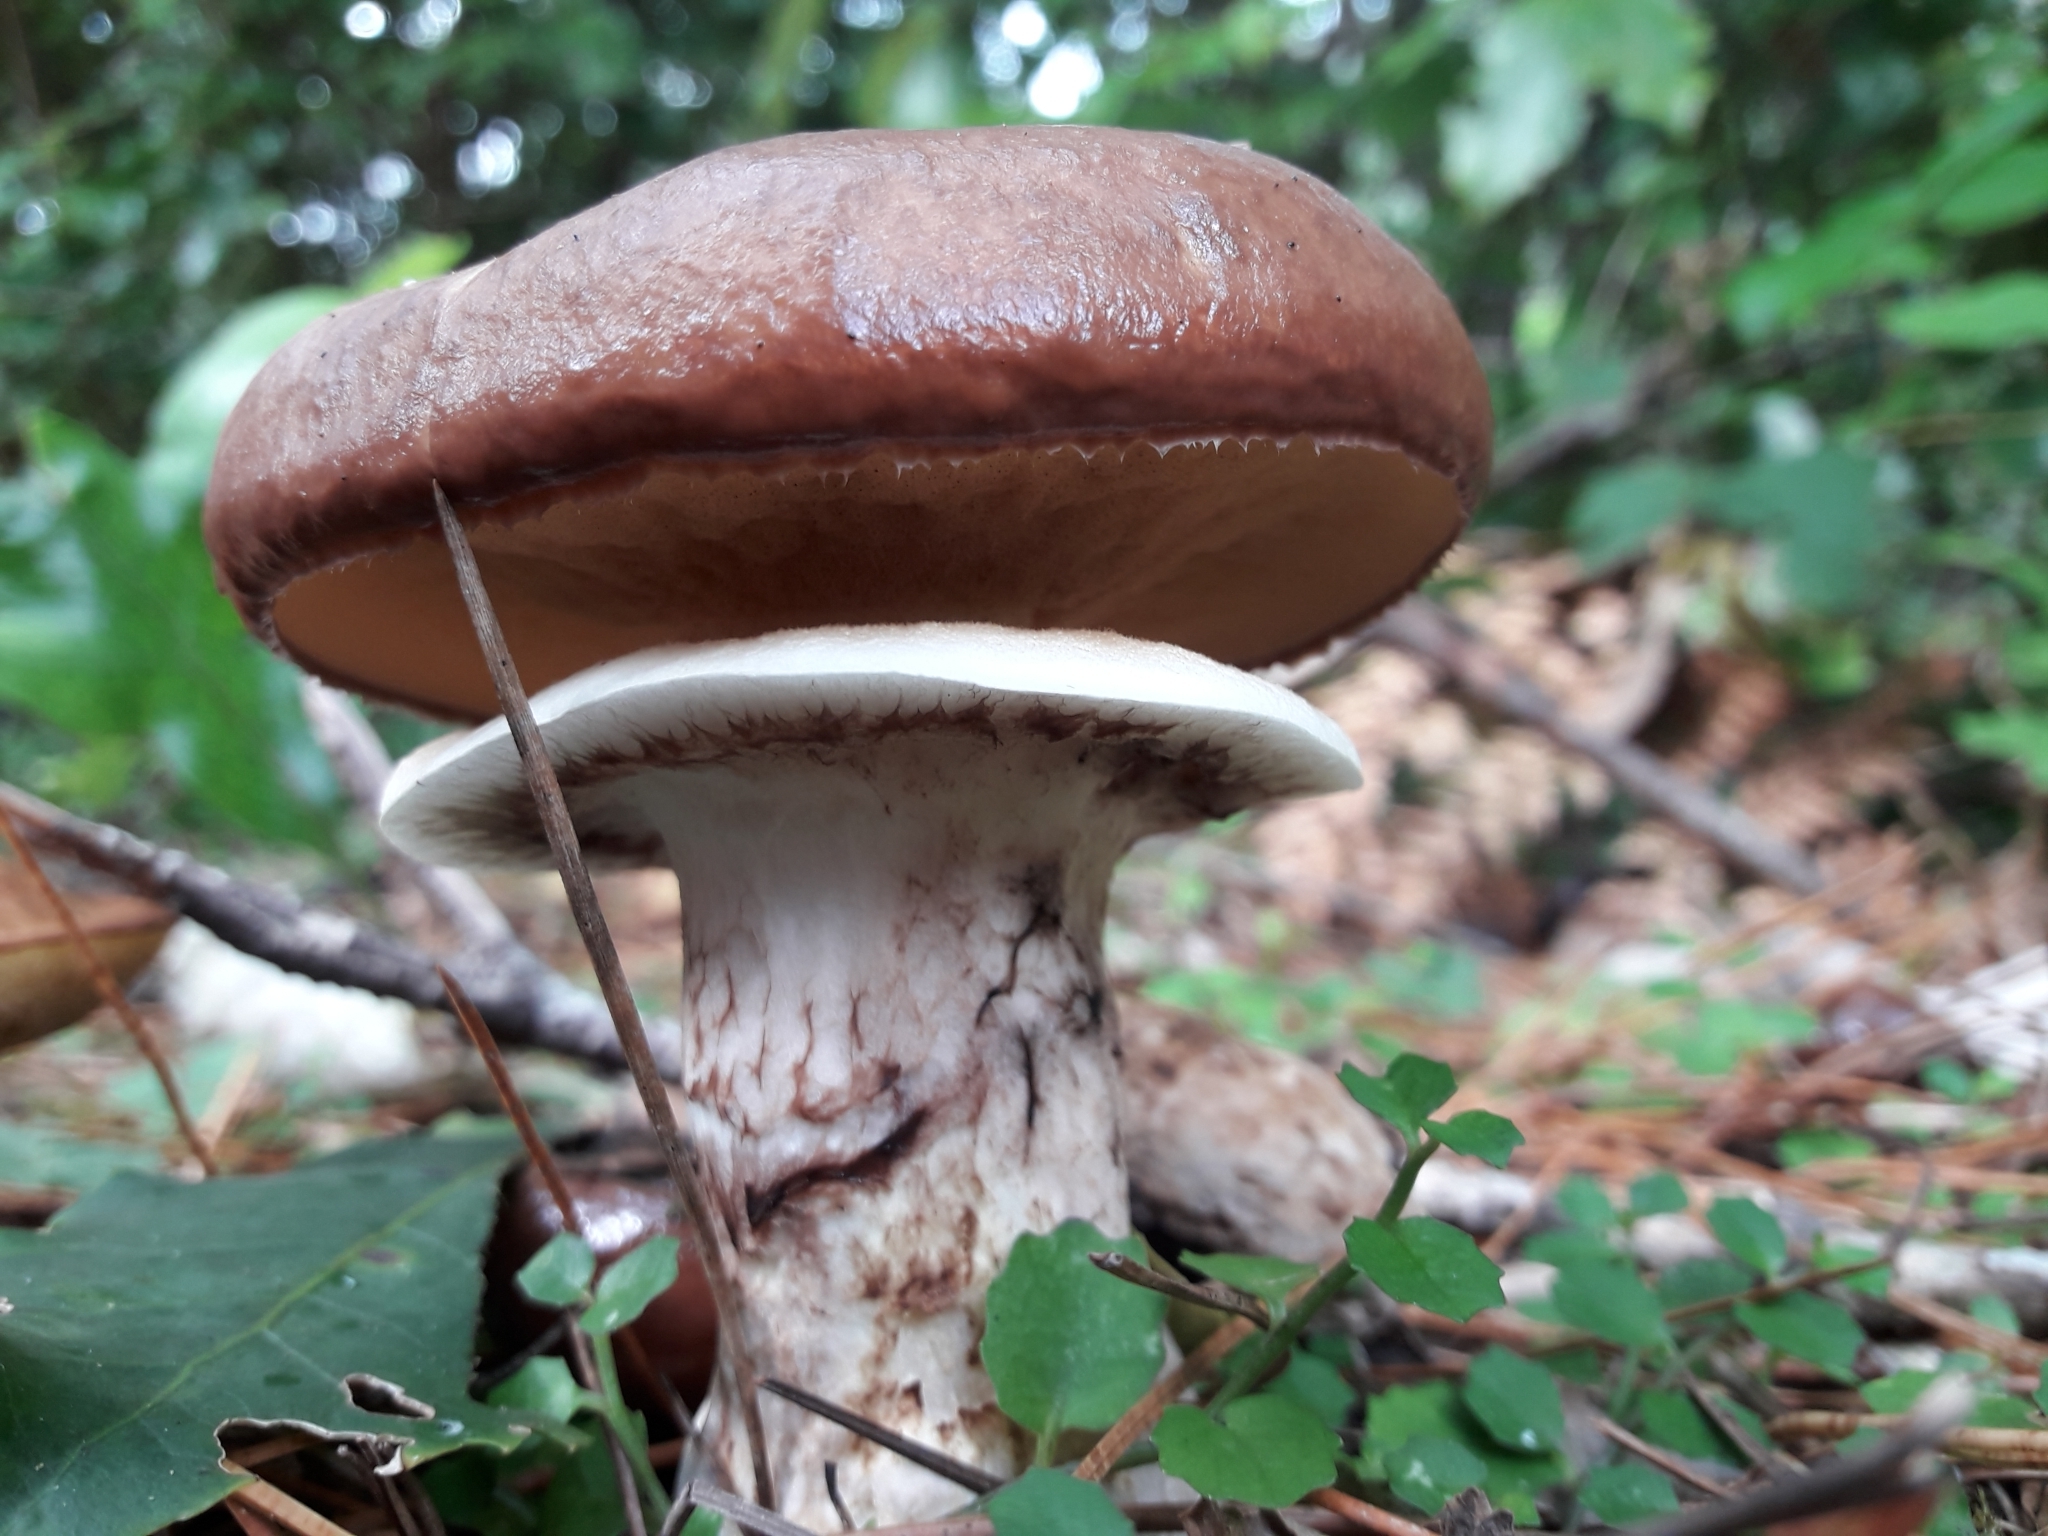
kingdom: Fungi
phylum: Basidiomycota
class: Agaricomycetes
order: Boletales
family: Suillaceae
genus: Suillus
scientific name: Suillus luteus
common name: Slippery jack
